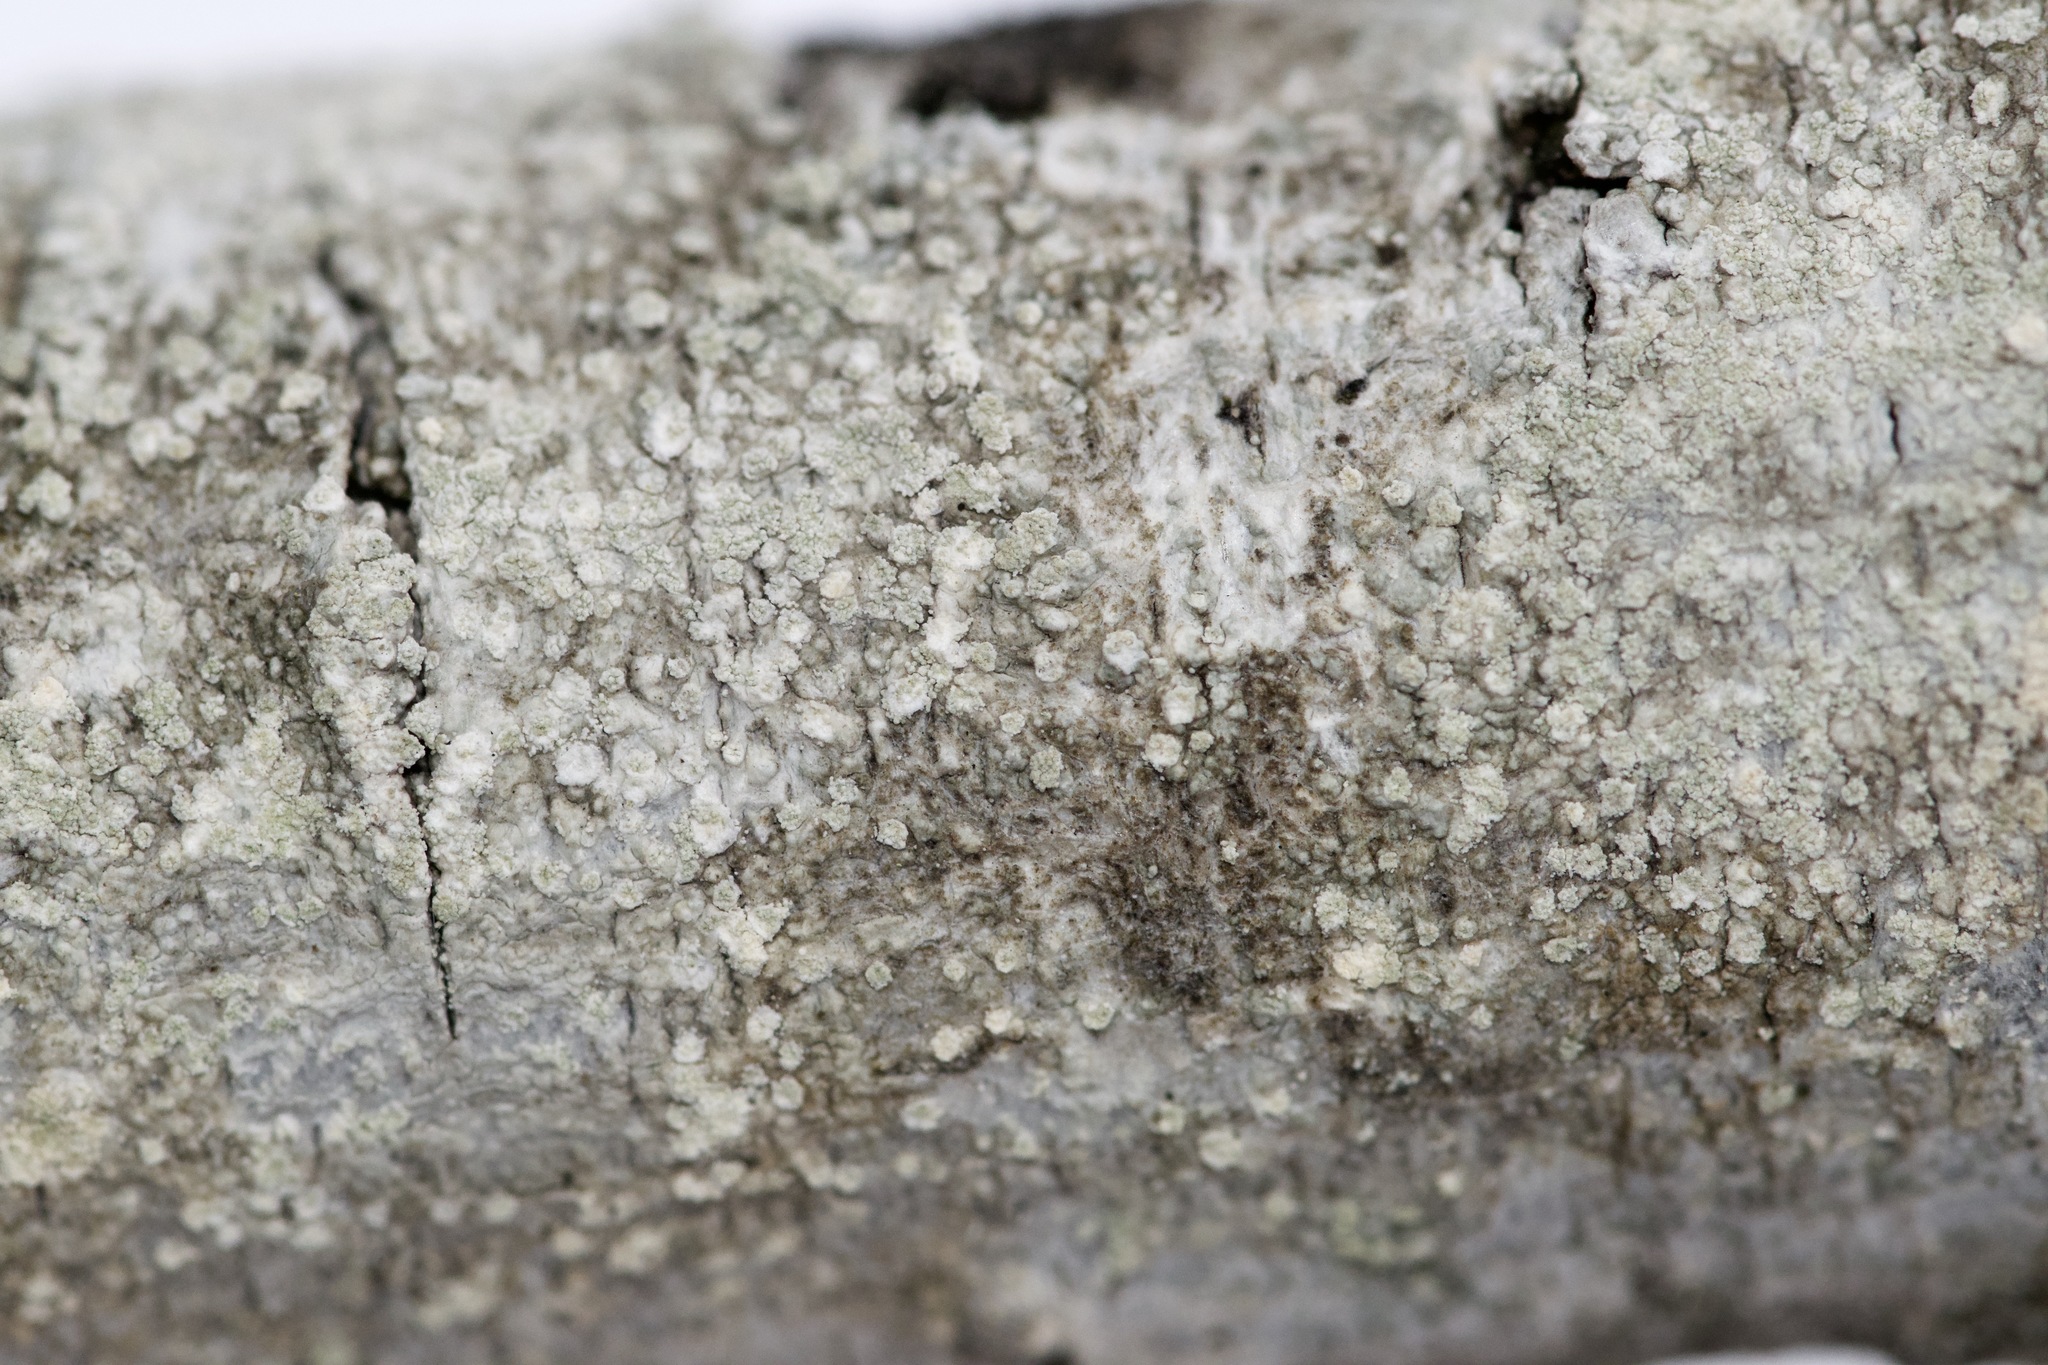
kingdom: Fungi
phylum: Ascomycota
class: Lecanoromycetes
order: Pertusariales
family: Ochrolechiaceae
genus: Ochrolechia
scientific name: Ochrolechia arborea
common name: Tree saucer lichen
